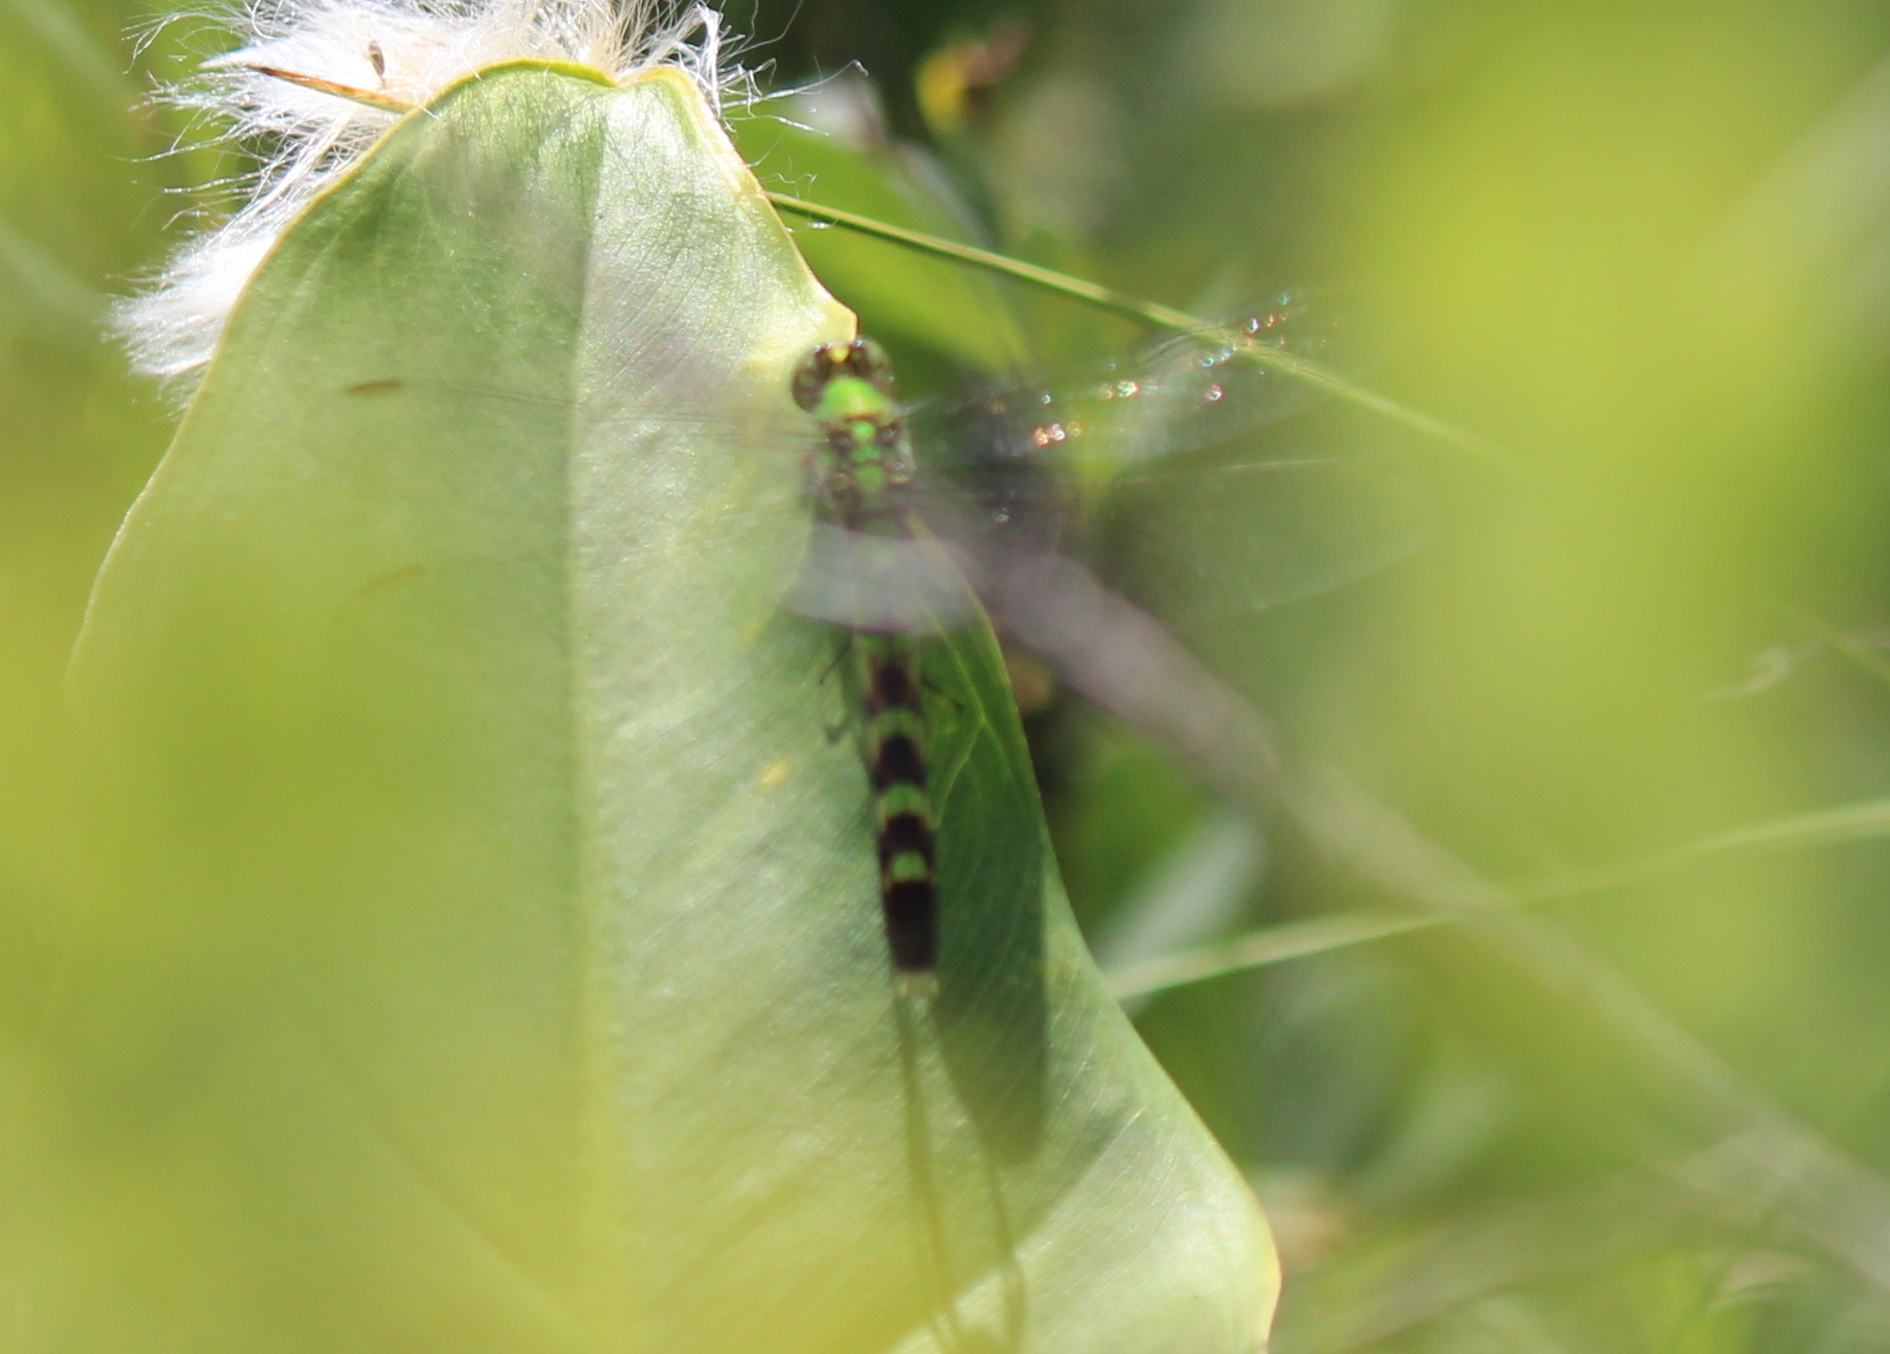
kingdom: Animalia
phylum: Arthropoda
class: Insecta
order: Odonata
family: Libellulidae
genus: Erythemis
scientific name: Erythemis simplicicollis
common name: Eastern pondhawk
